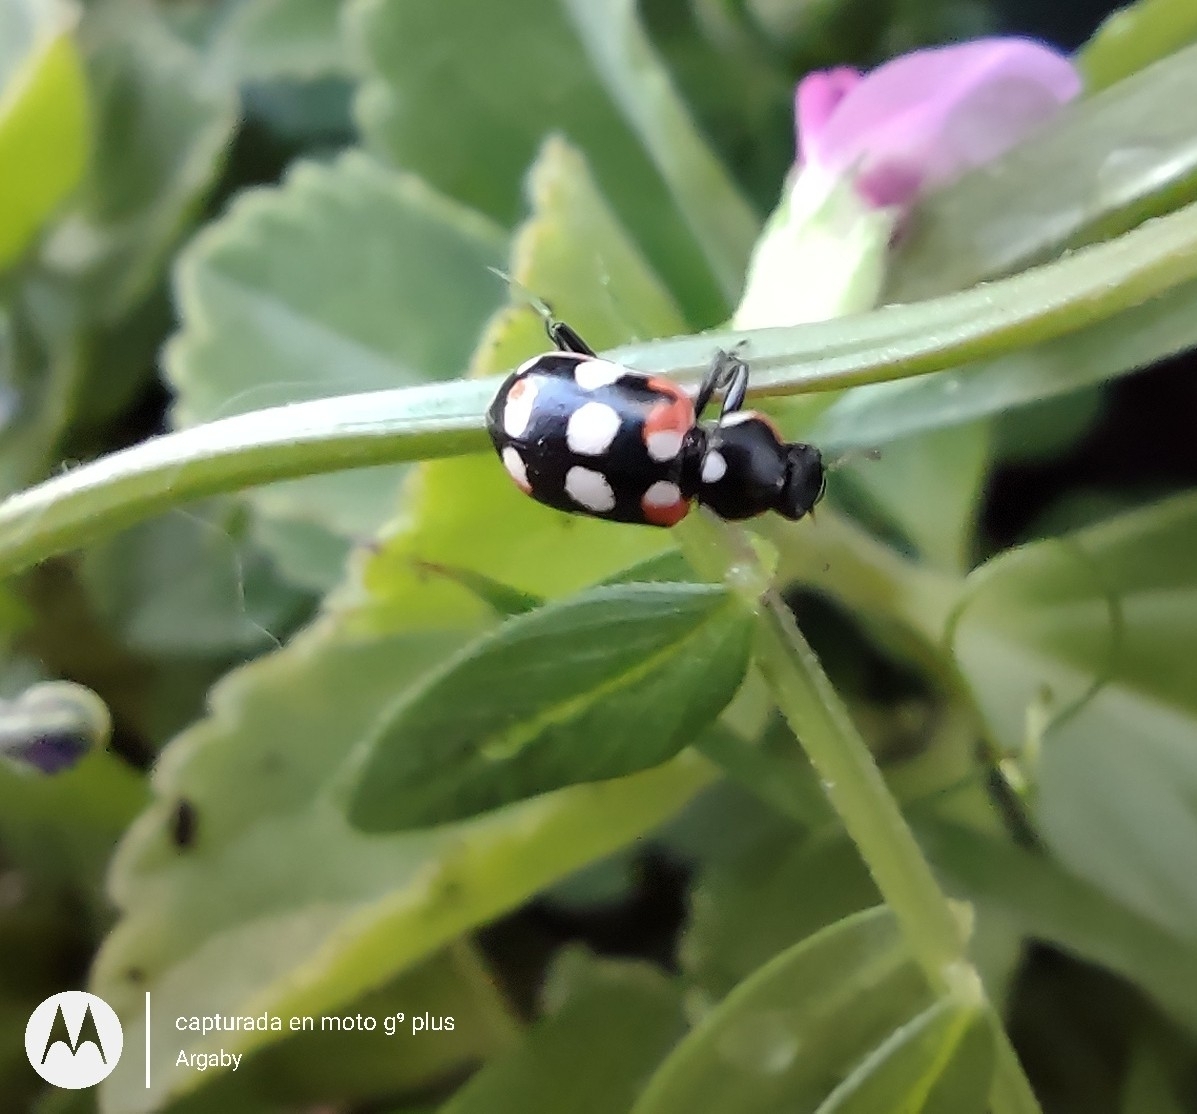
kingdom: Animalia
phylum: Arthropoda
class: Insecta
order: Coleoptera
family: Coccinellidae
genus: Eriopis
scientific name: Eriopis connexa
